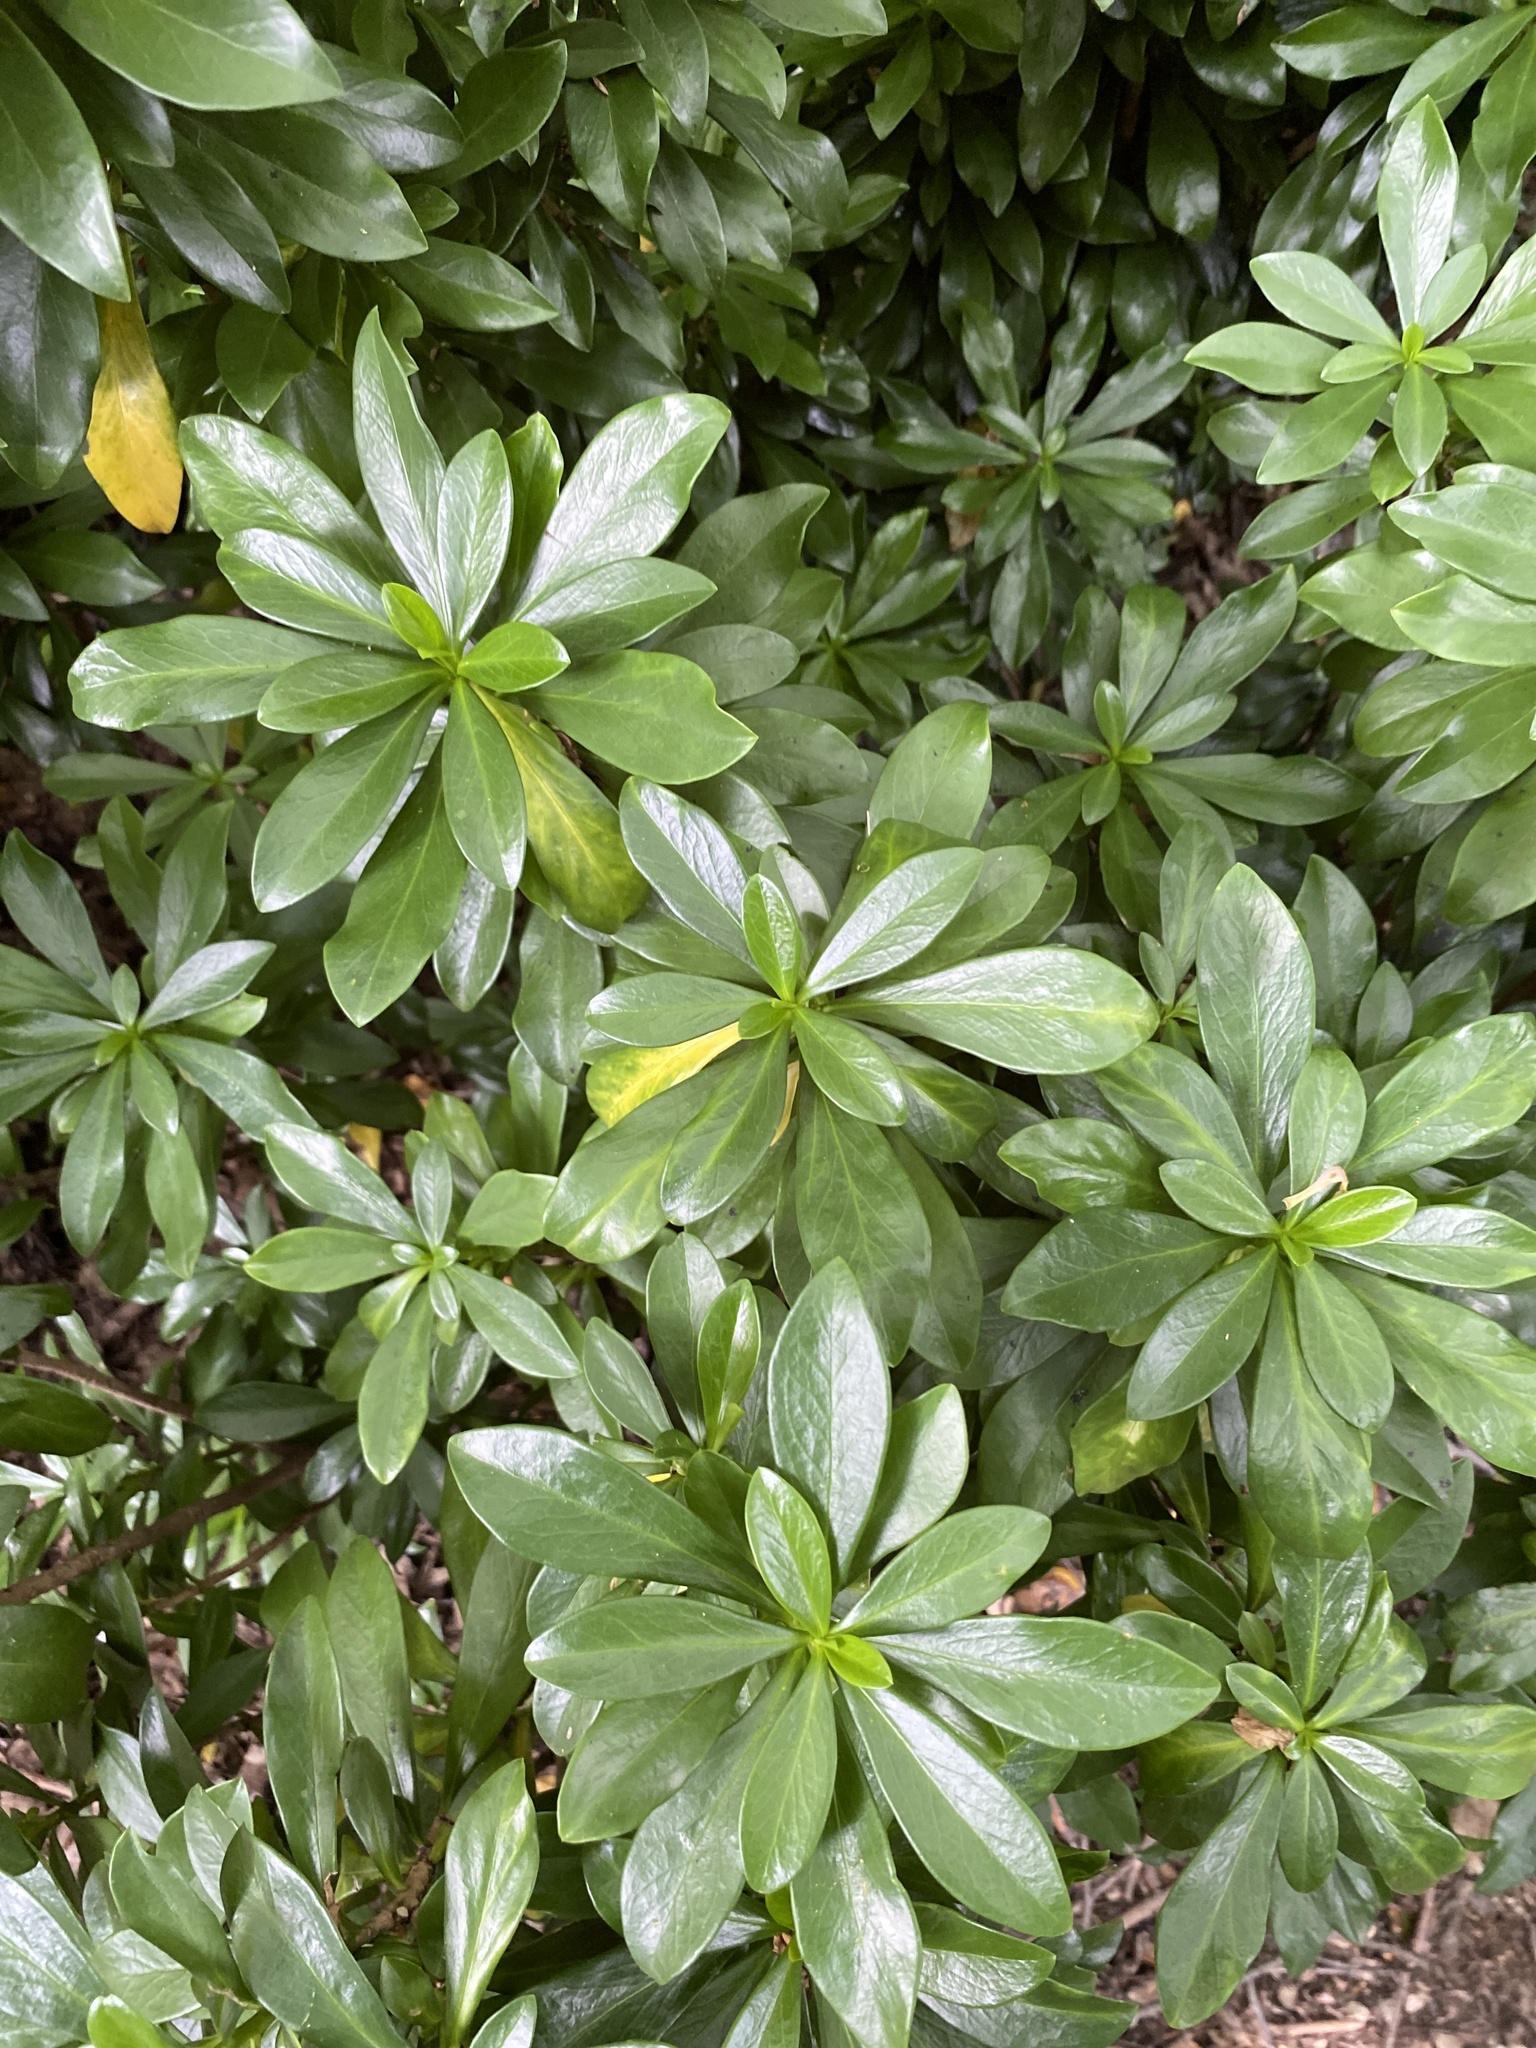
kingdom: Plantae
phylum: Tracheophyta
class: Magnoliopsida
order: Malvales
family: Thymelaeaceae
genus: Daphne
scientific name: Daphne laureola
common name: Spurge-laurel
